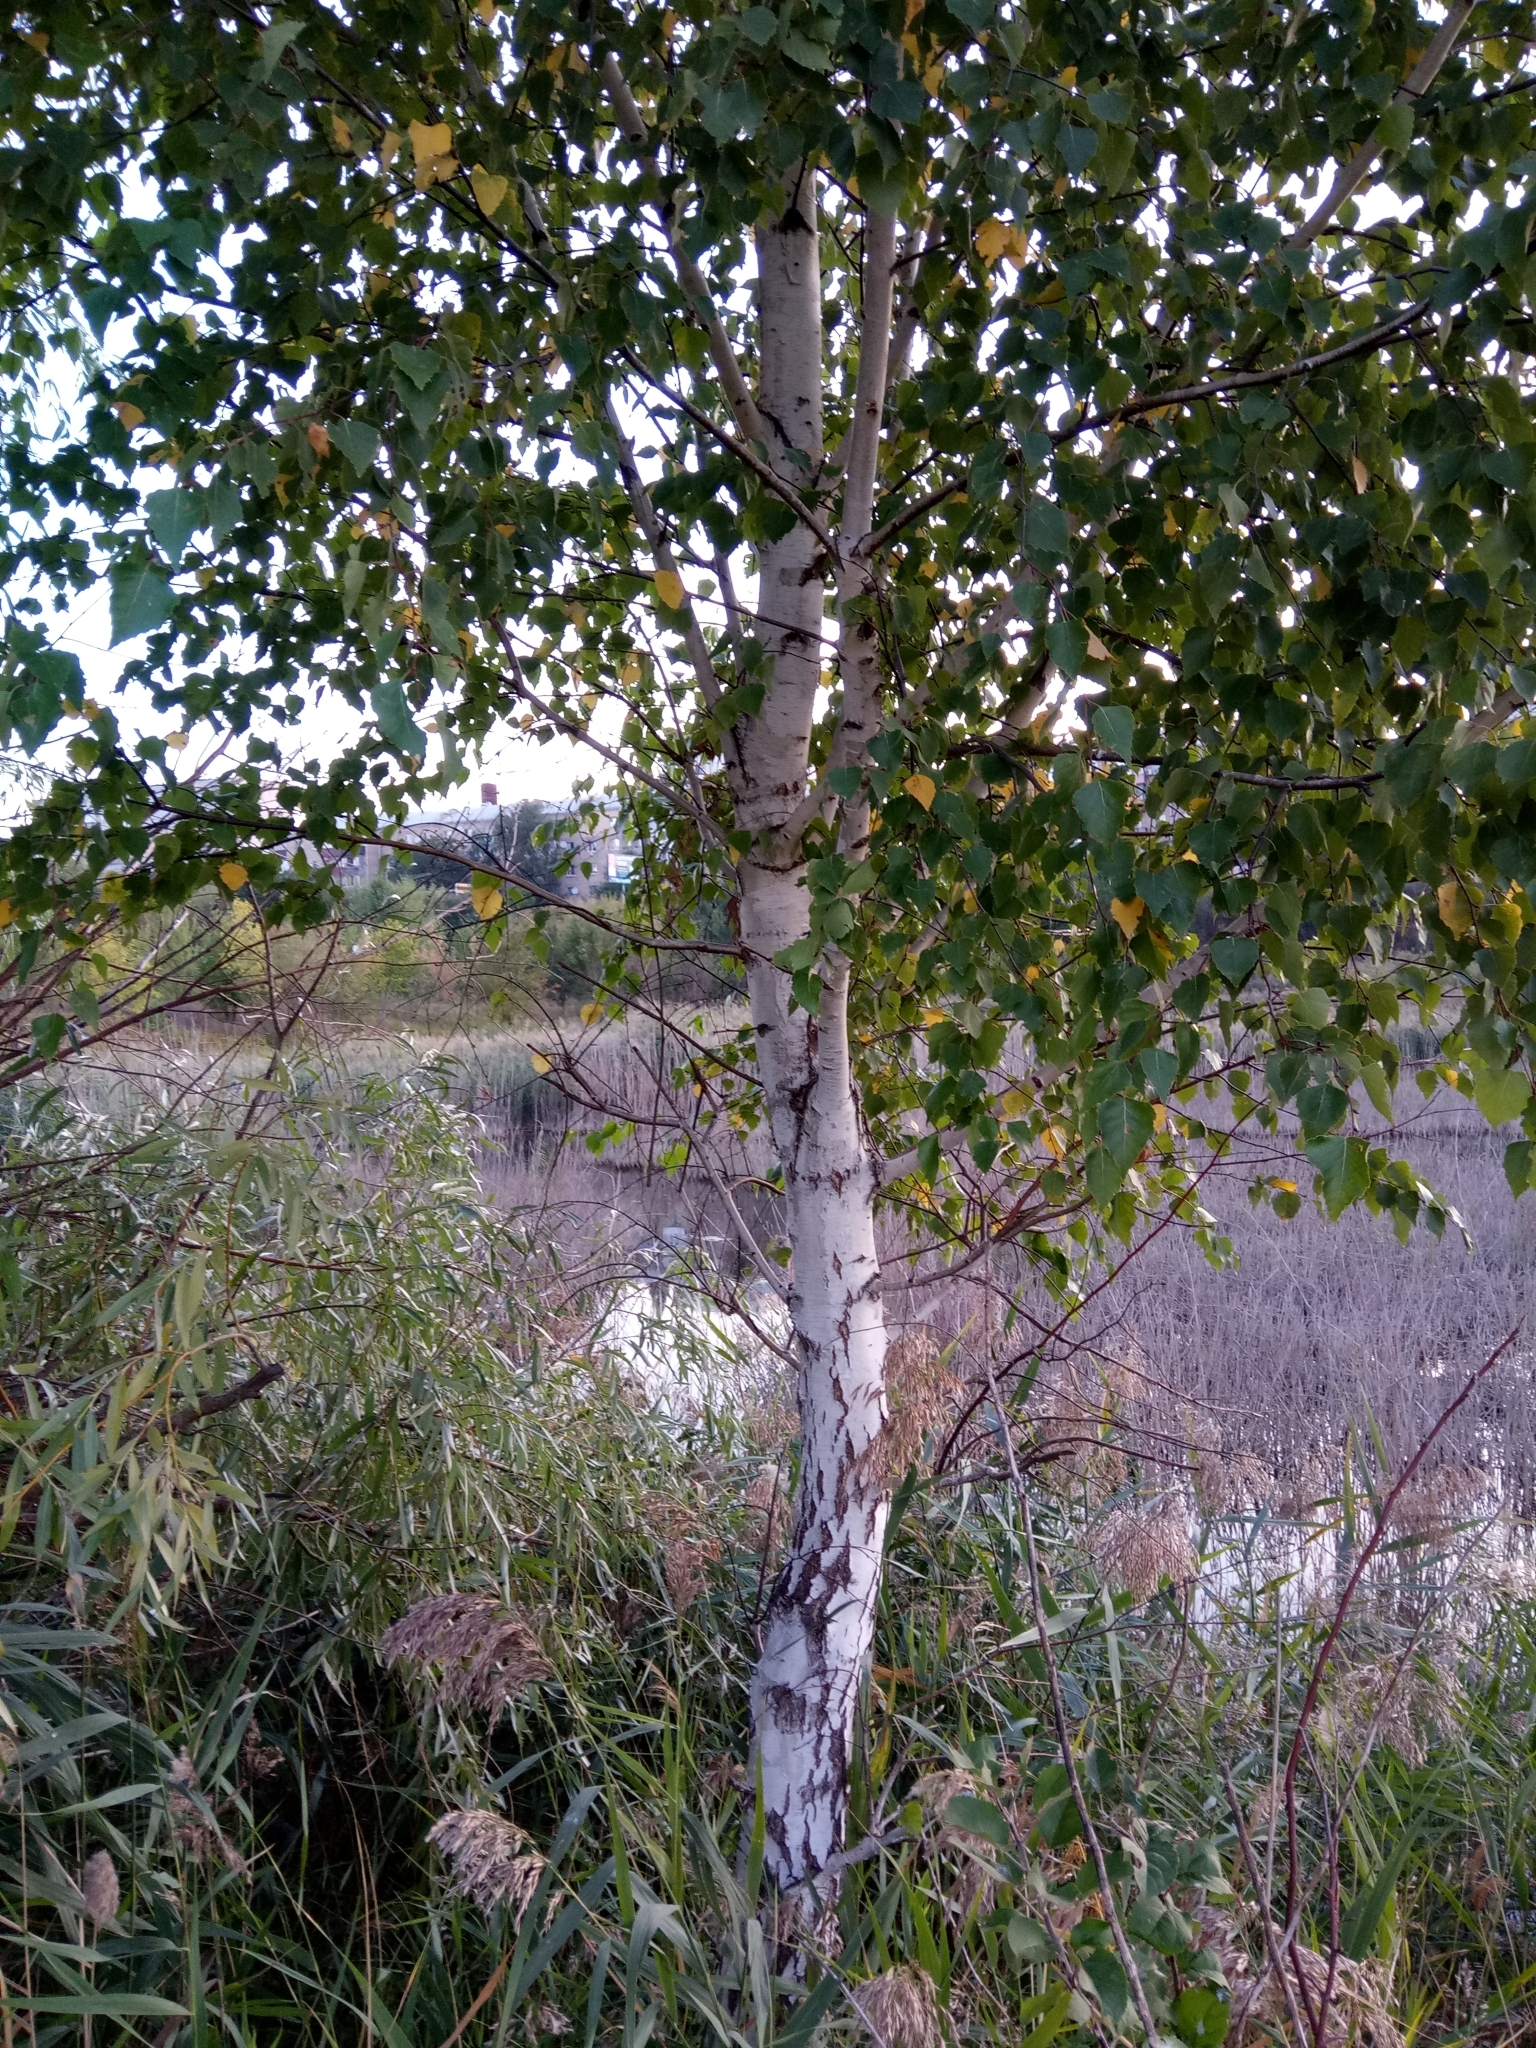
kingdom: Plantae
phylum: Tracheophyta
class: Magnoliopsida
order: Fagales
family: Betulaceae
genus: Betula
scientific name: Betula pendula
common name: Silver birch
